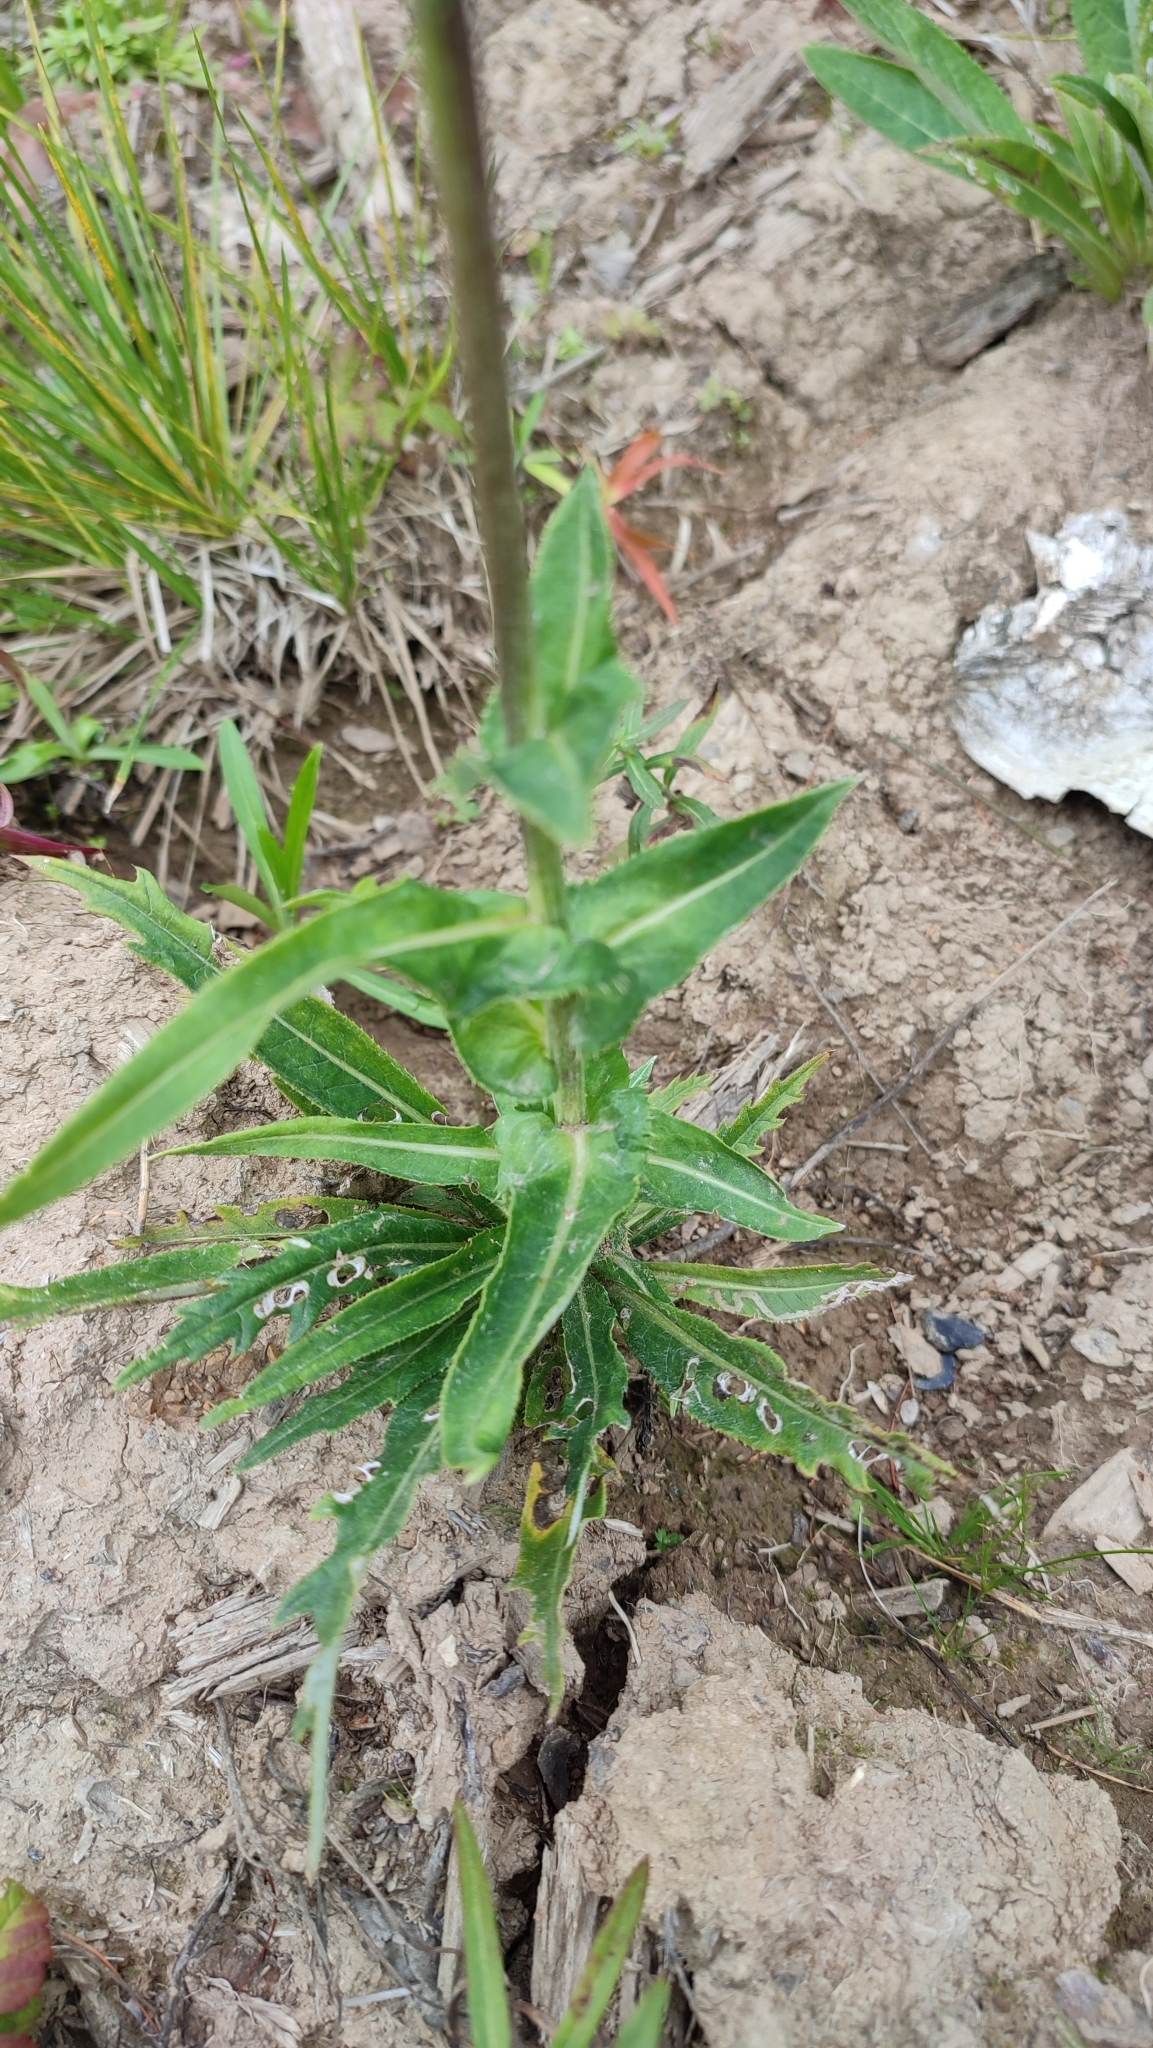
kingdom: Plantae
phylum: Tracheophyta
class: Magnoliopsida
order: Asterales
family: Asteraceae
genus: Cirsium
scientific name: Cirsium heterophyllum
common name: Melancholy thistle
